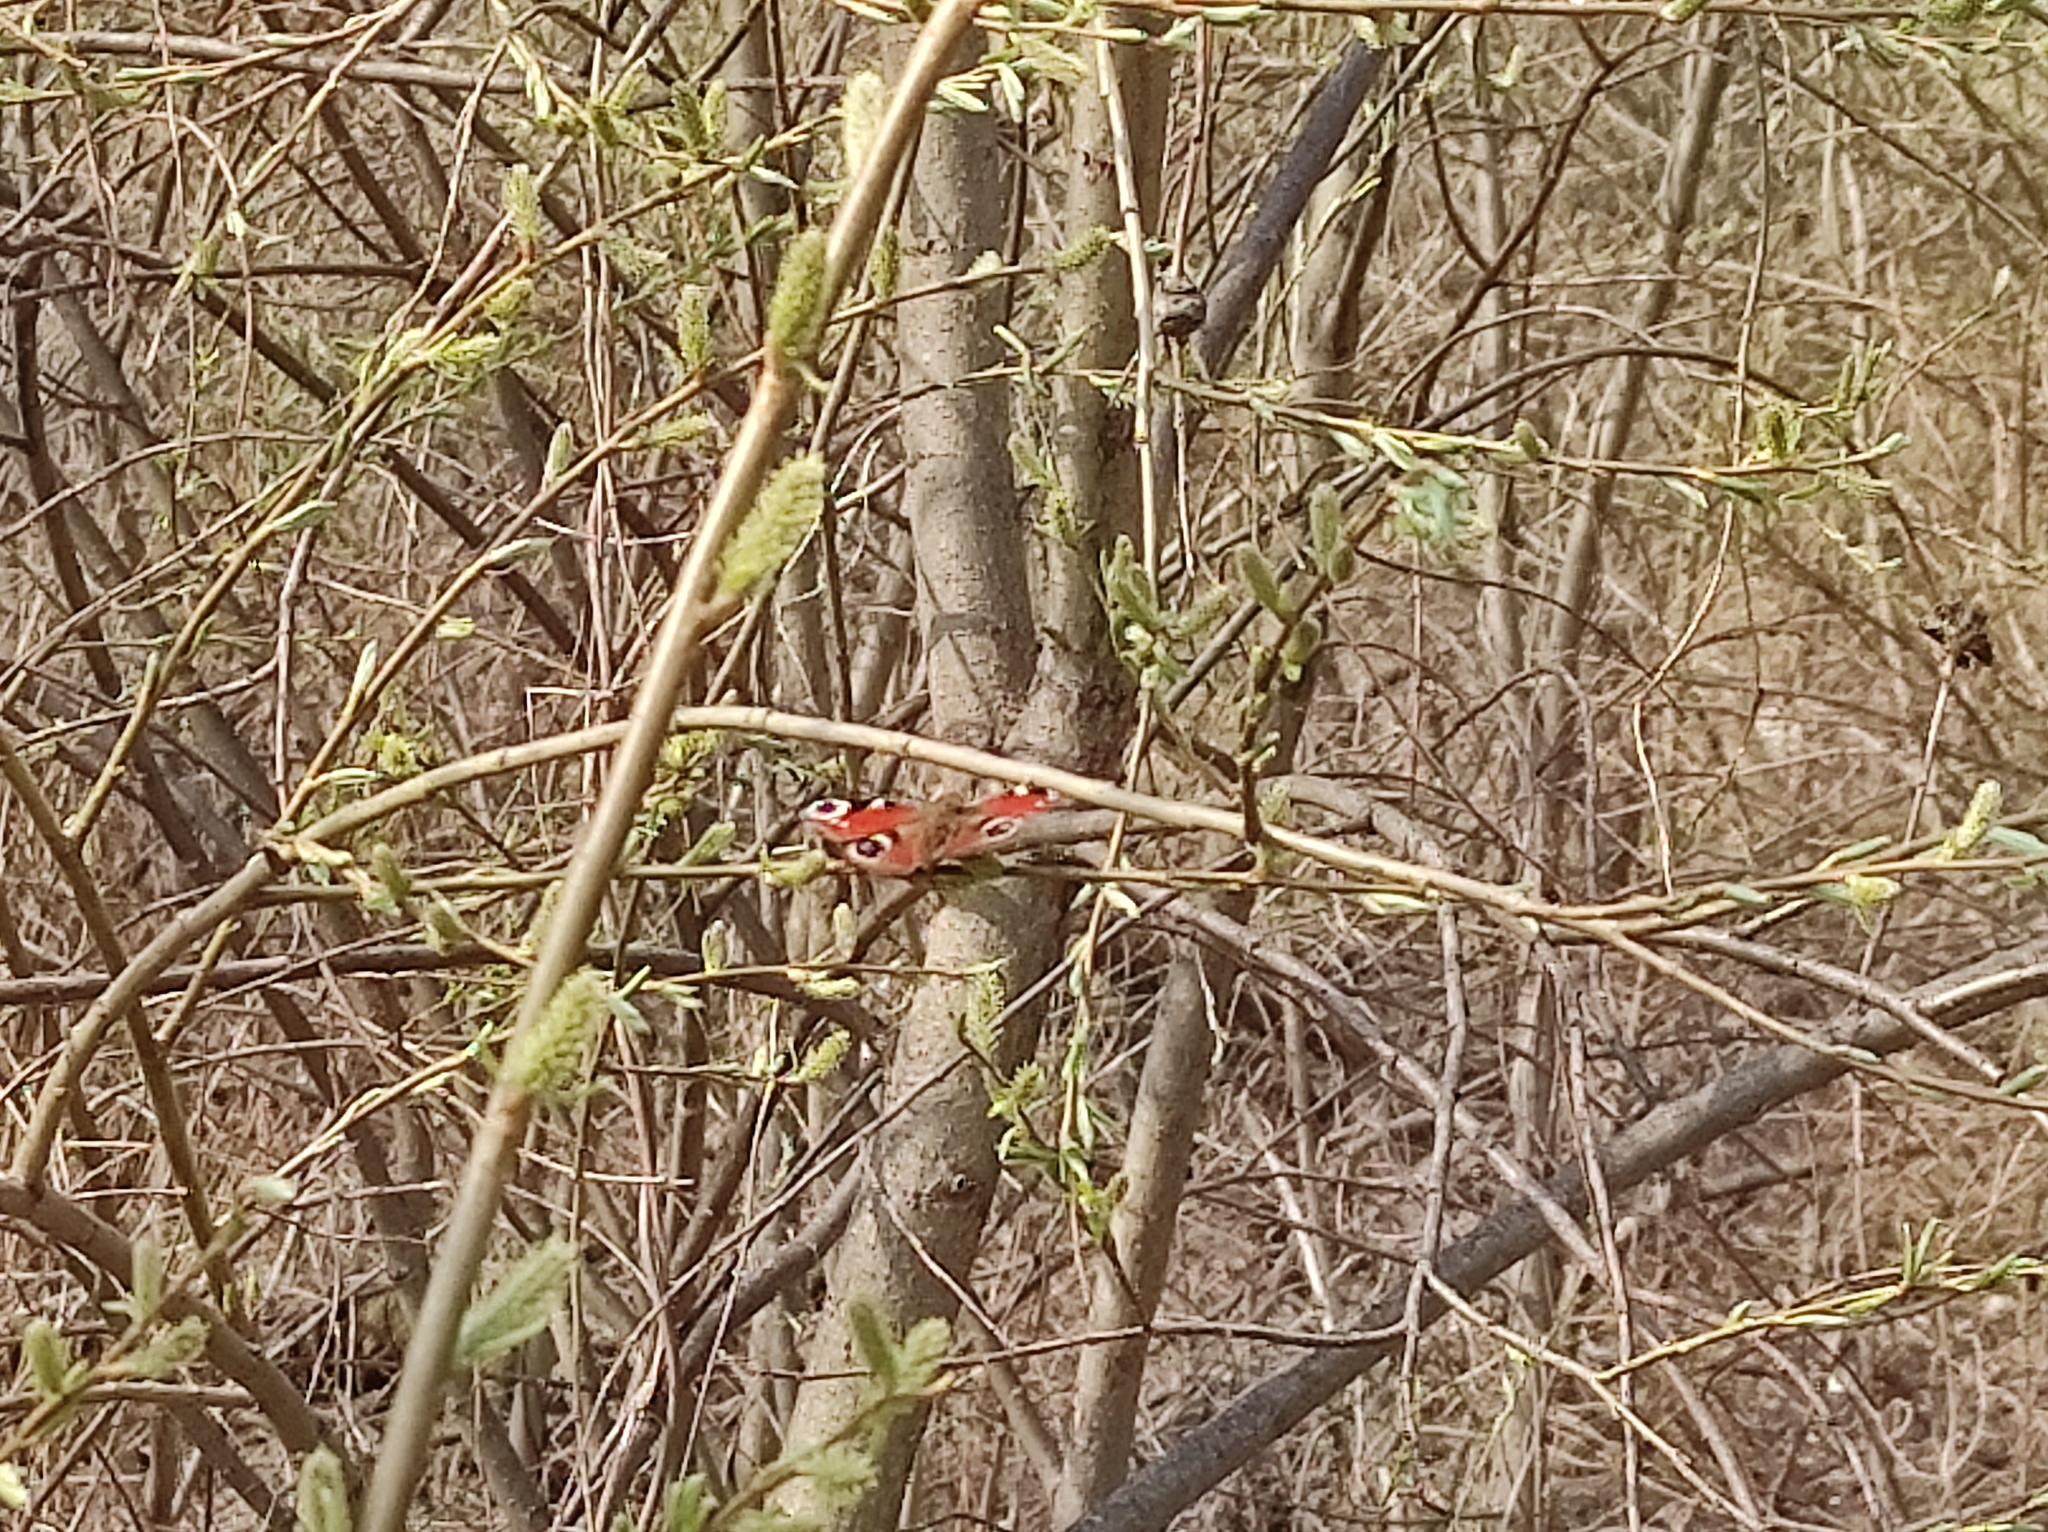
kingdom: Animalia
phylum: Arthropoda
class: Insecta
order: Lepidoptera
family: Nymphalidae
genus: Aglais
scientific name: Aglais io
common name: Peacock
